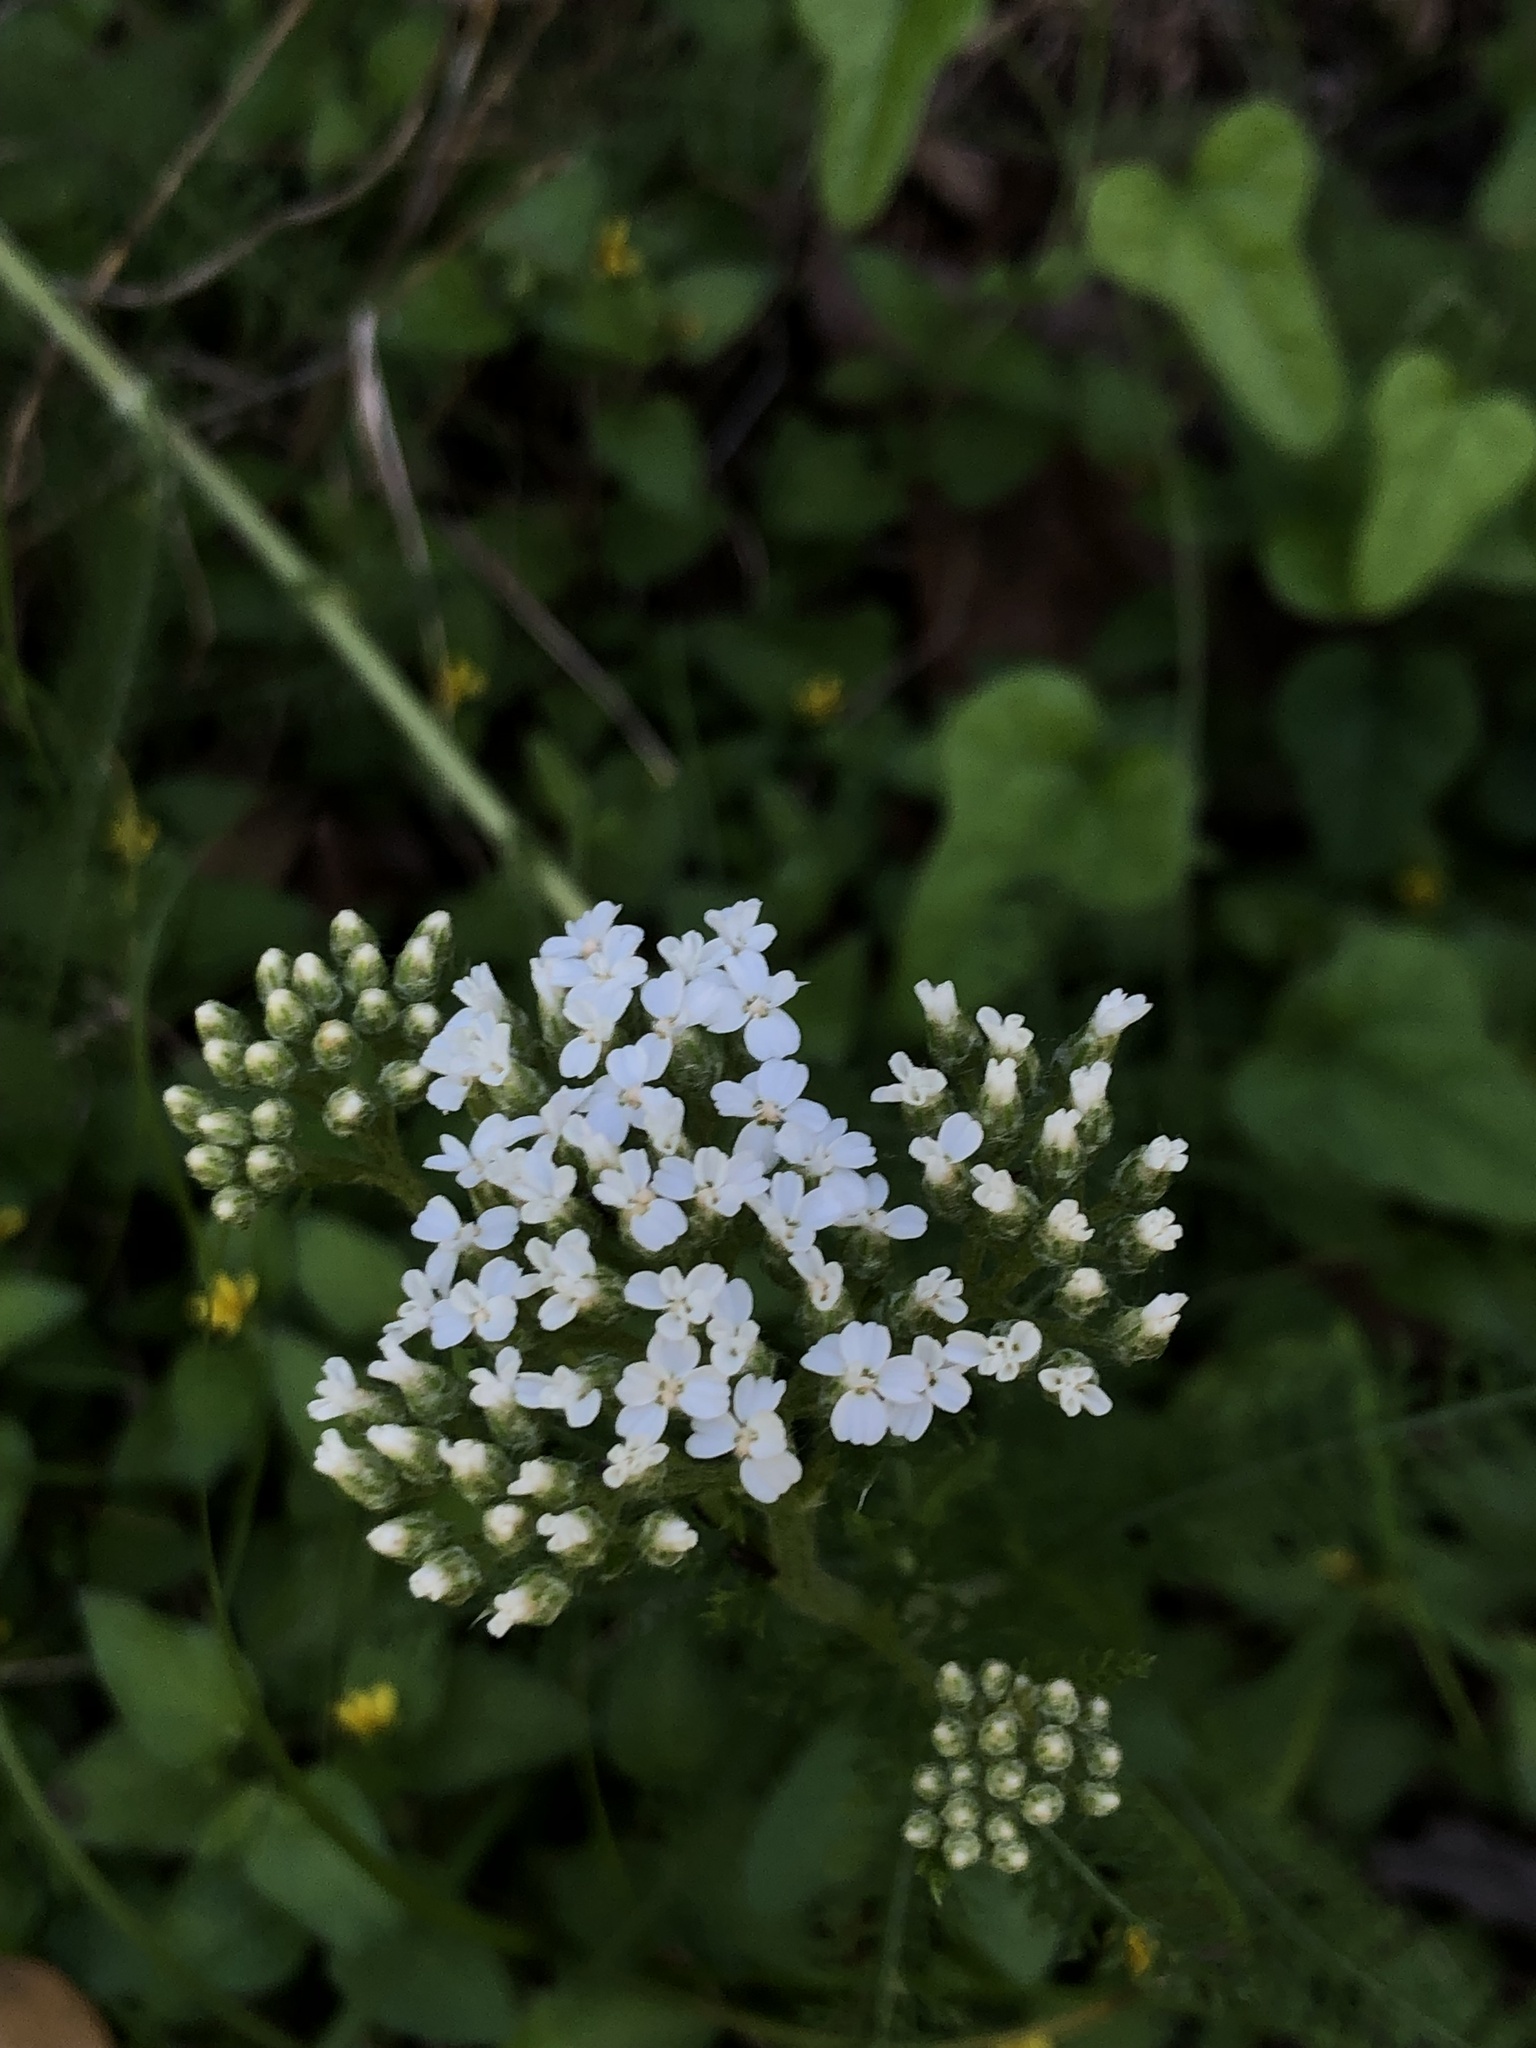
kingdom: Plantae
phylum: Tracheophyta
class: Magnoliopsida
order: Asterales
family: Asteraceae
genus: Achillea
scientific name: Achillea millefolium
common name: Yarrow
